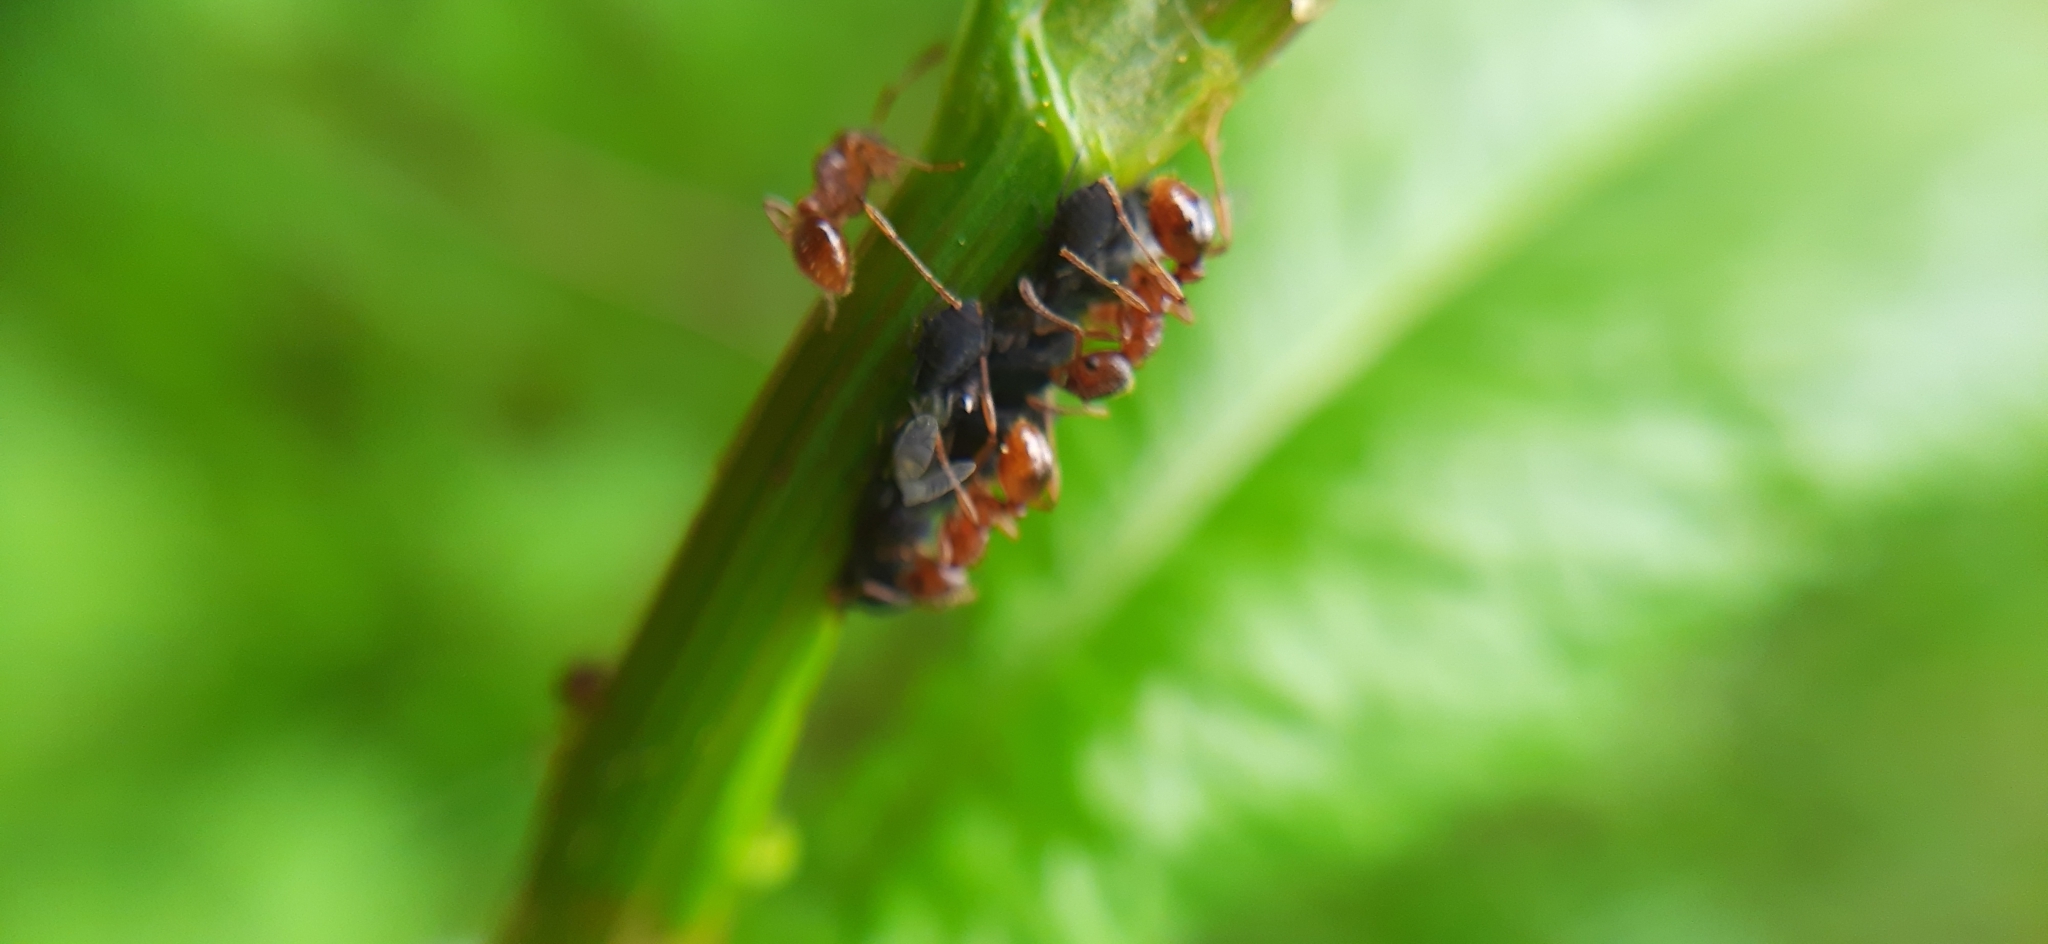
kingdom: Animalia
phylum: Arthropoda
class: Insecta
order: Hymenoptera
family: Formicidae
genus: Myrmica
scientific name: Myrmica
